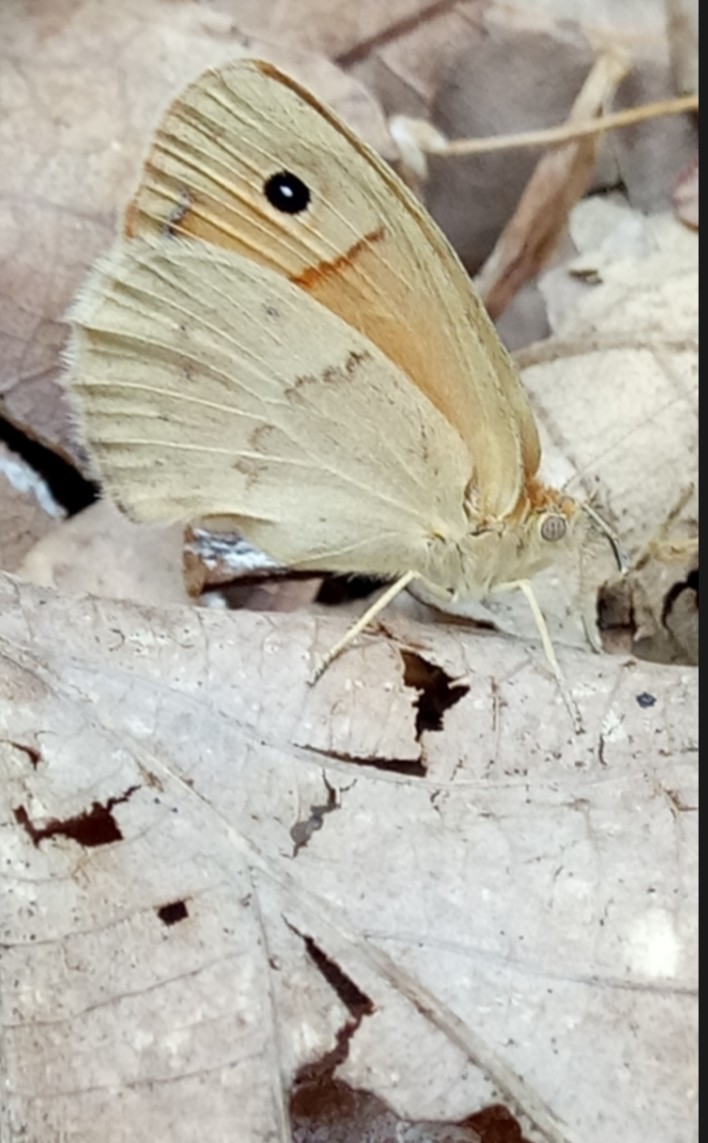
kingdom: Animalia
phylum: Arthropoda
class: Insecta
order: Lepidoptera
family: Nymphalidae
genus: Coenonympha
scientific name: Coenonympha pamphilus
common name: Small heath
